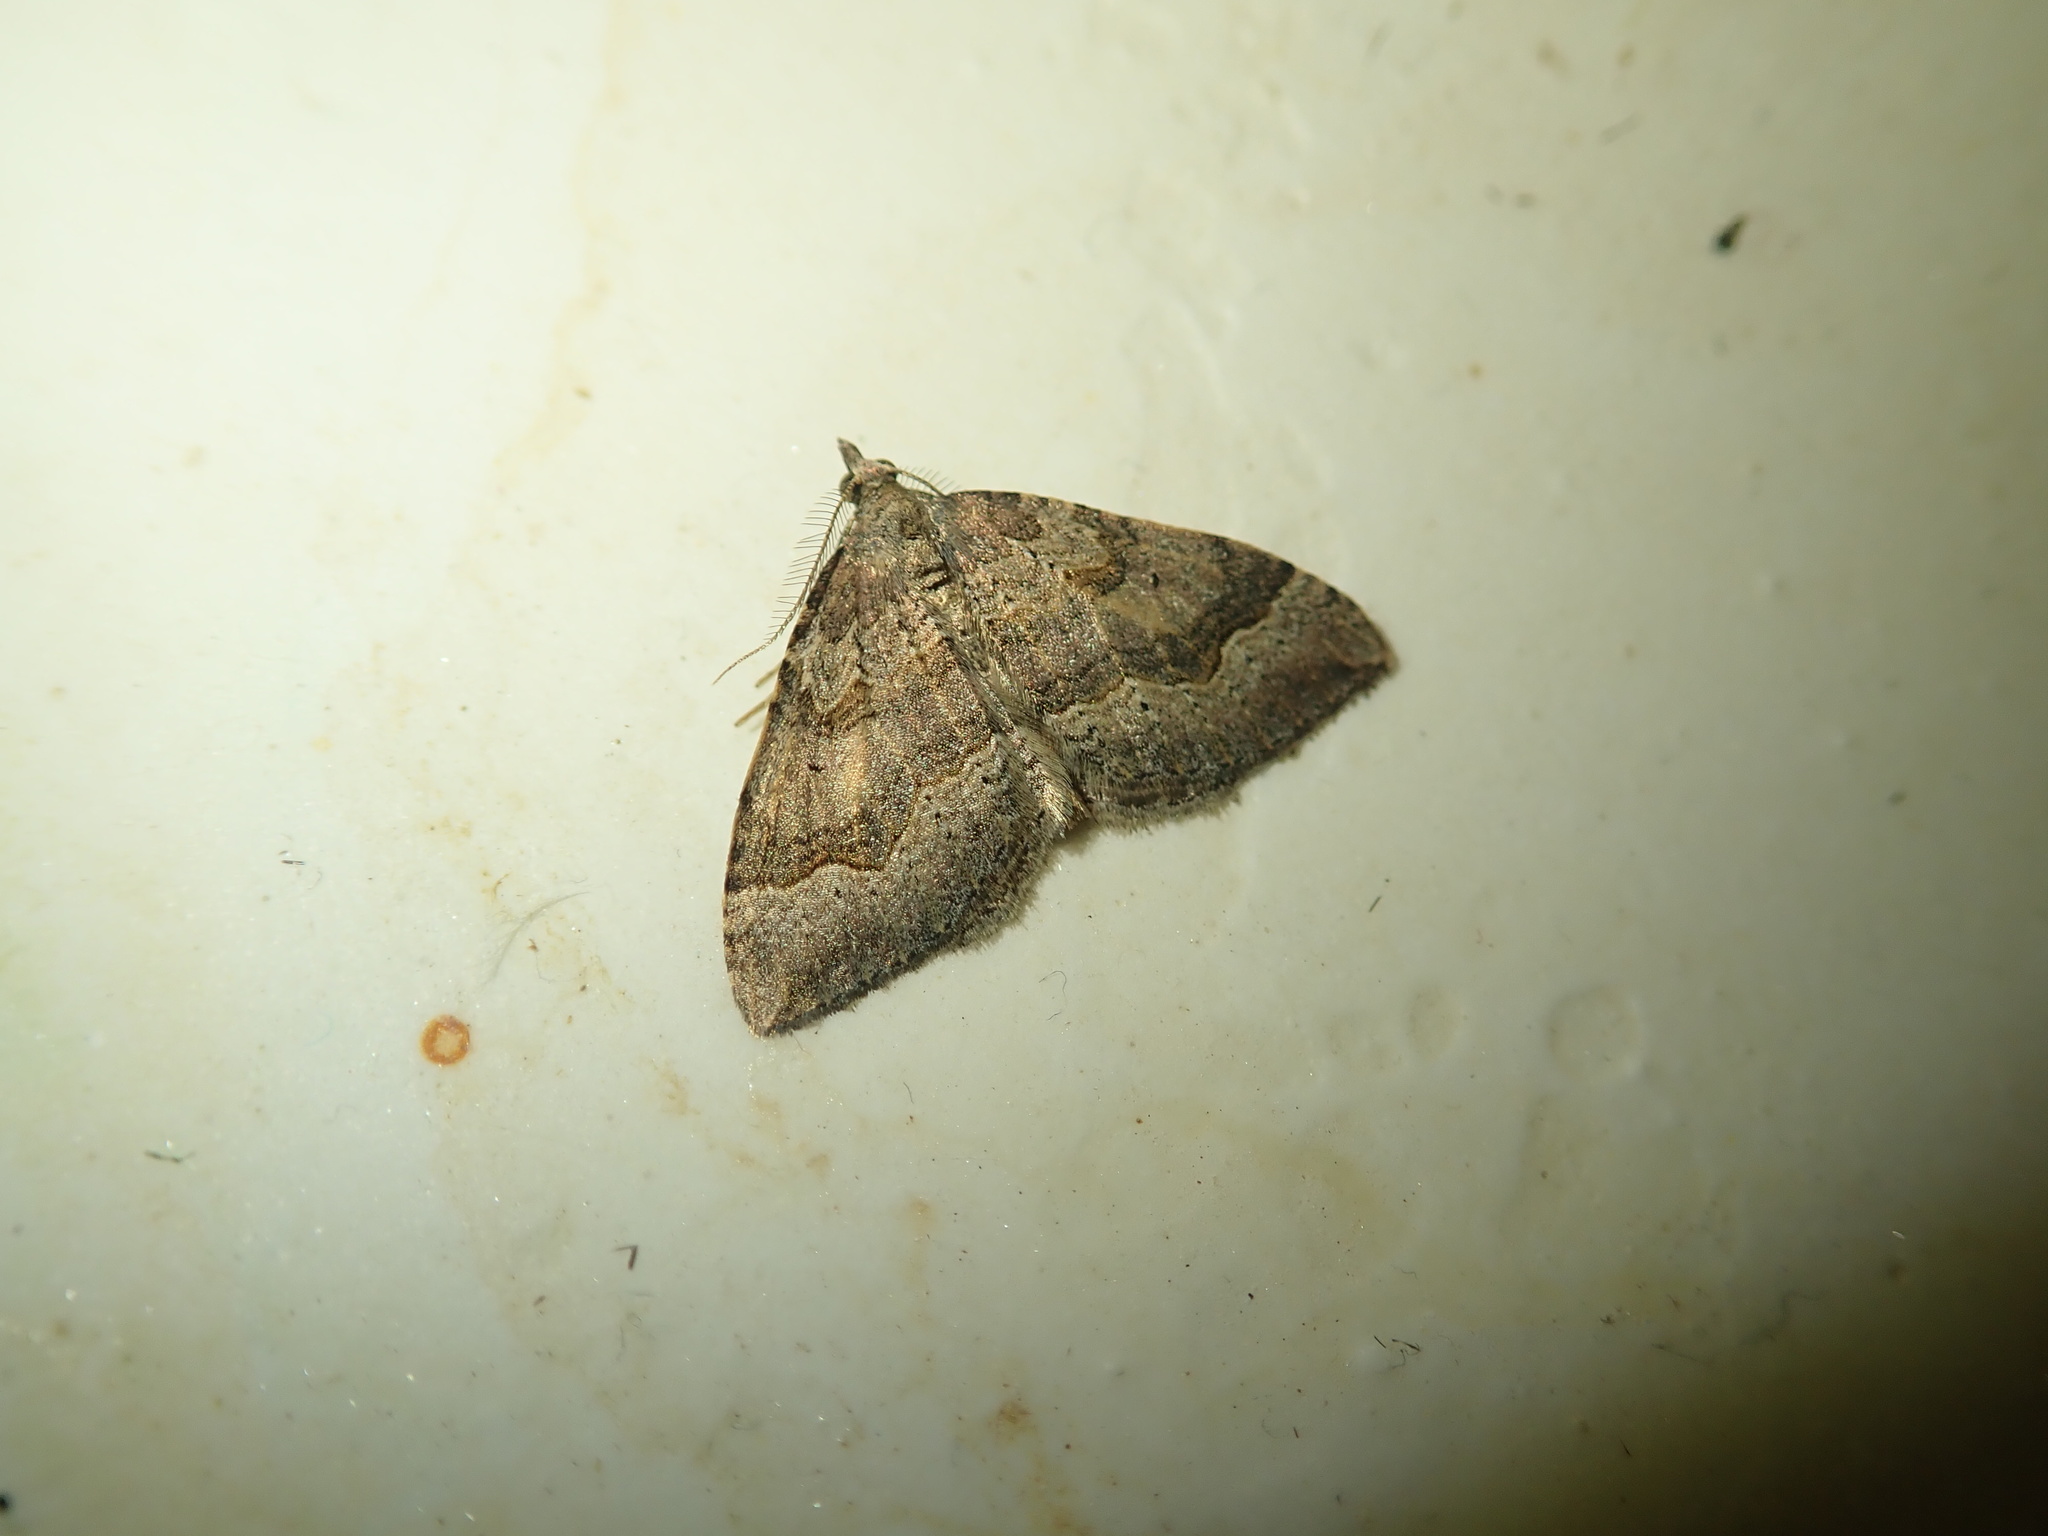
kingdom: Animalia
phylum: Arthropoda
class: Insecta
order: Lepidoptera
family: Geometridae
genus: Epyaxa
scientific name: Epyaxa rosearia
